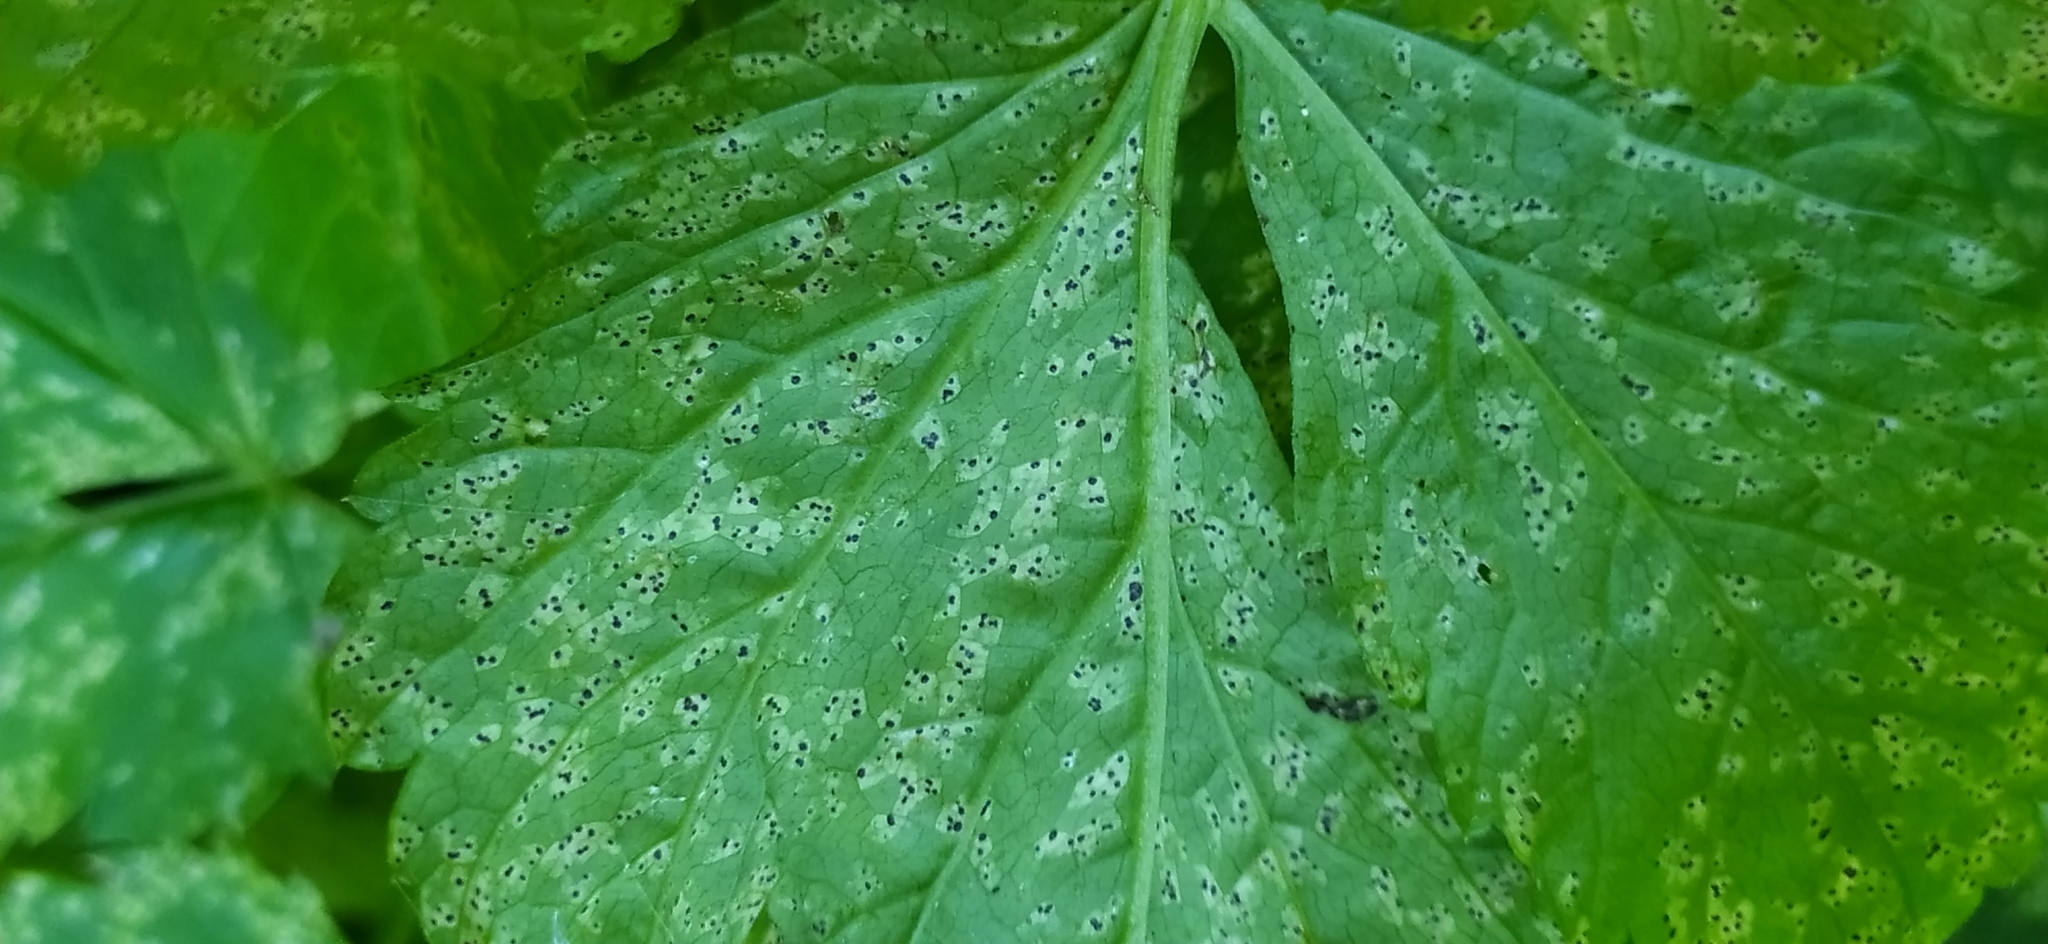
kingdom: Fungi
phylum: Ascomycota
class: Dothideomycetes
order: Mycosphaerellales
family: Mycosphaerellaceae
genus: Mycosphaerella
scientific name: Mycosphaerella podagrariae
